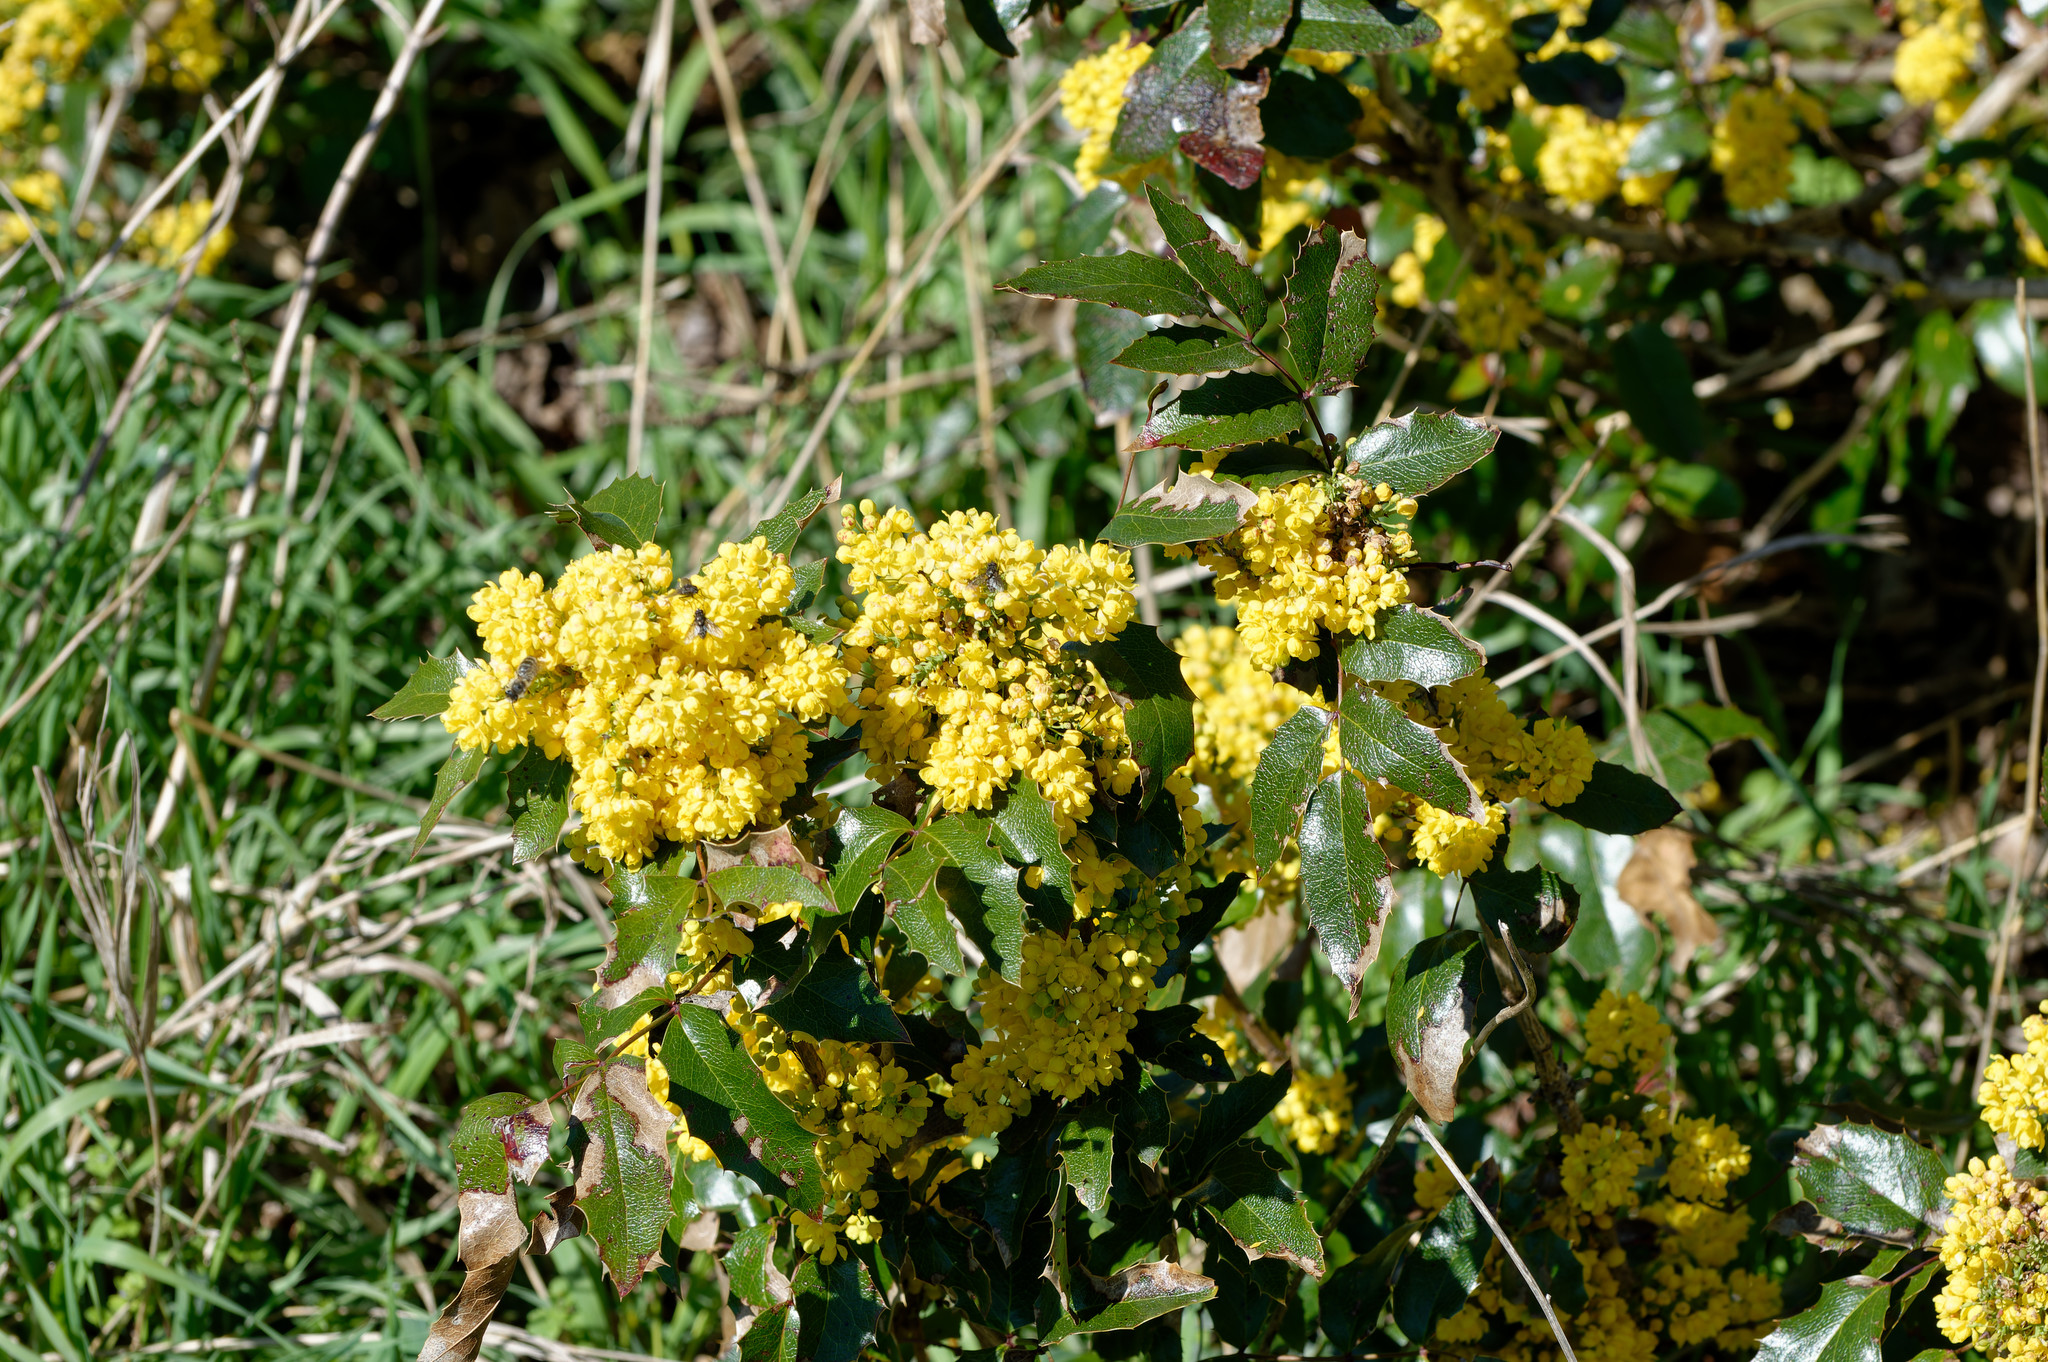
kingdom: Plantae
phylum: Tracheophyta
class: Magnoliopsida
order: Ranunculales
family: Berberidaceae
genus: Mahonia
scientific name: Mahonia aquifolium
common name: Oregon-grape
